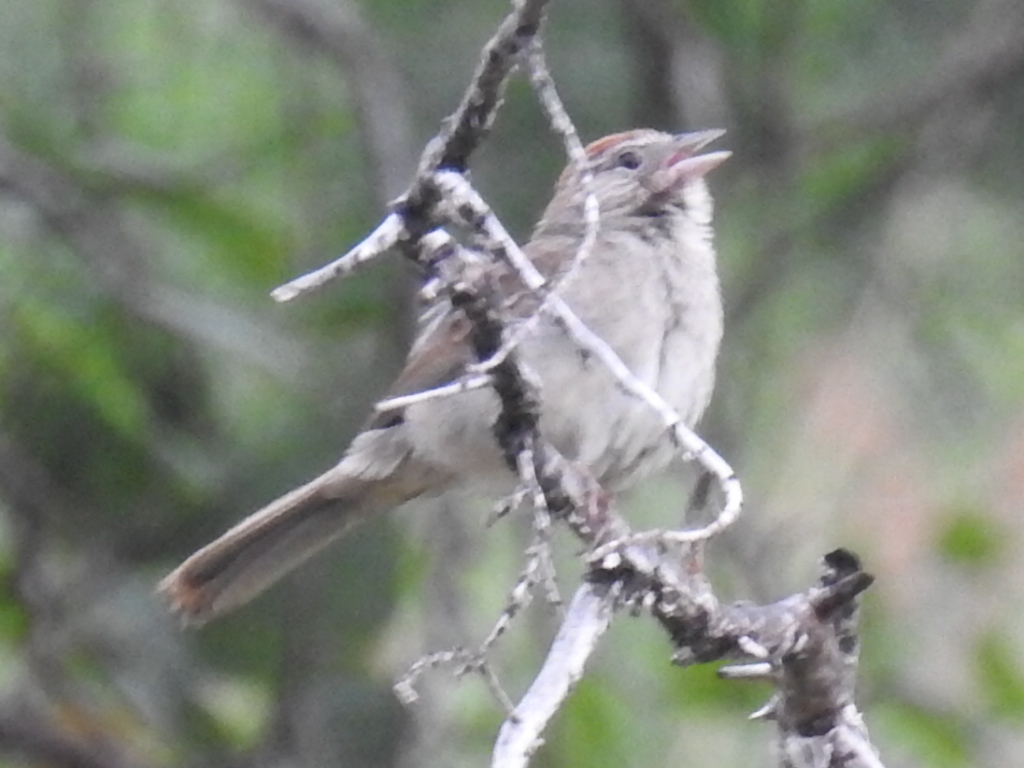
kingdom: Animalia
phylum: Chordata
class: Aves
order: Passeriformes
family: Passerellidae
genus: Aimophila
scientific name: Aimophila ruficeps
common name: Rufous-crowned sparrow
